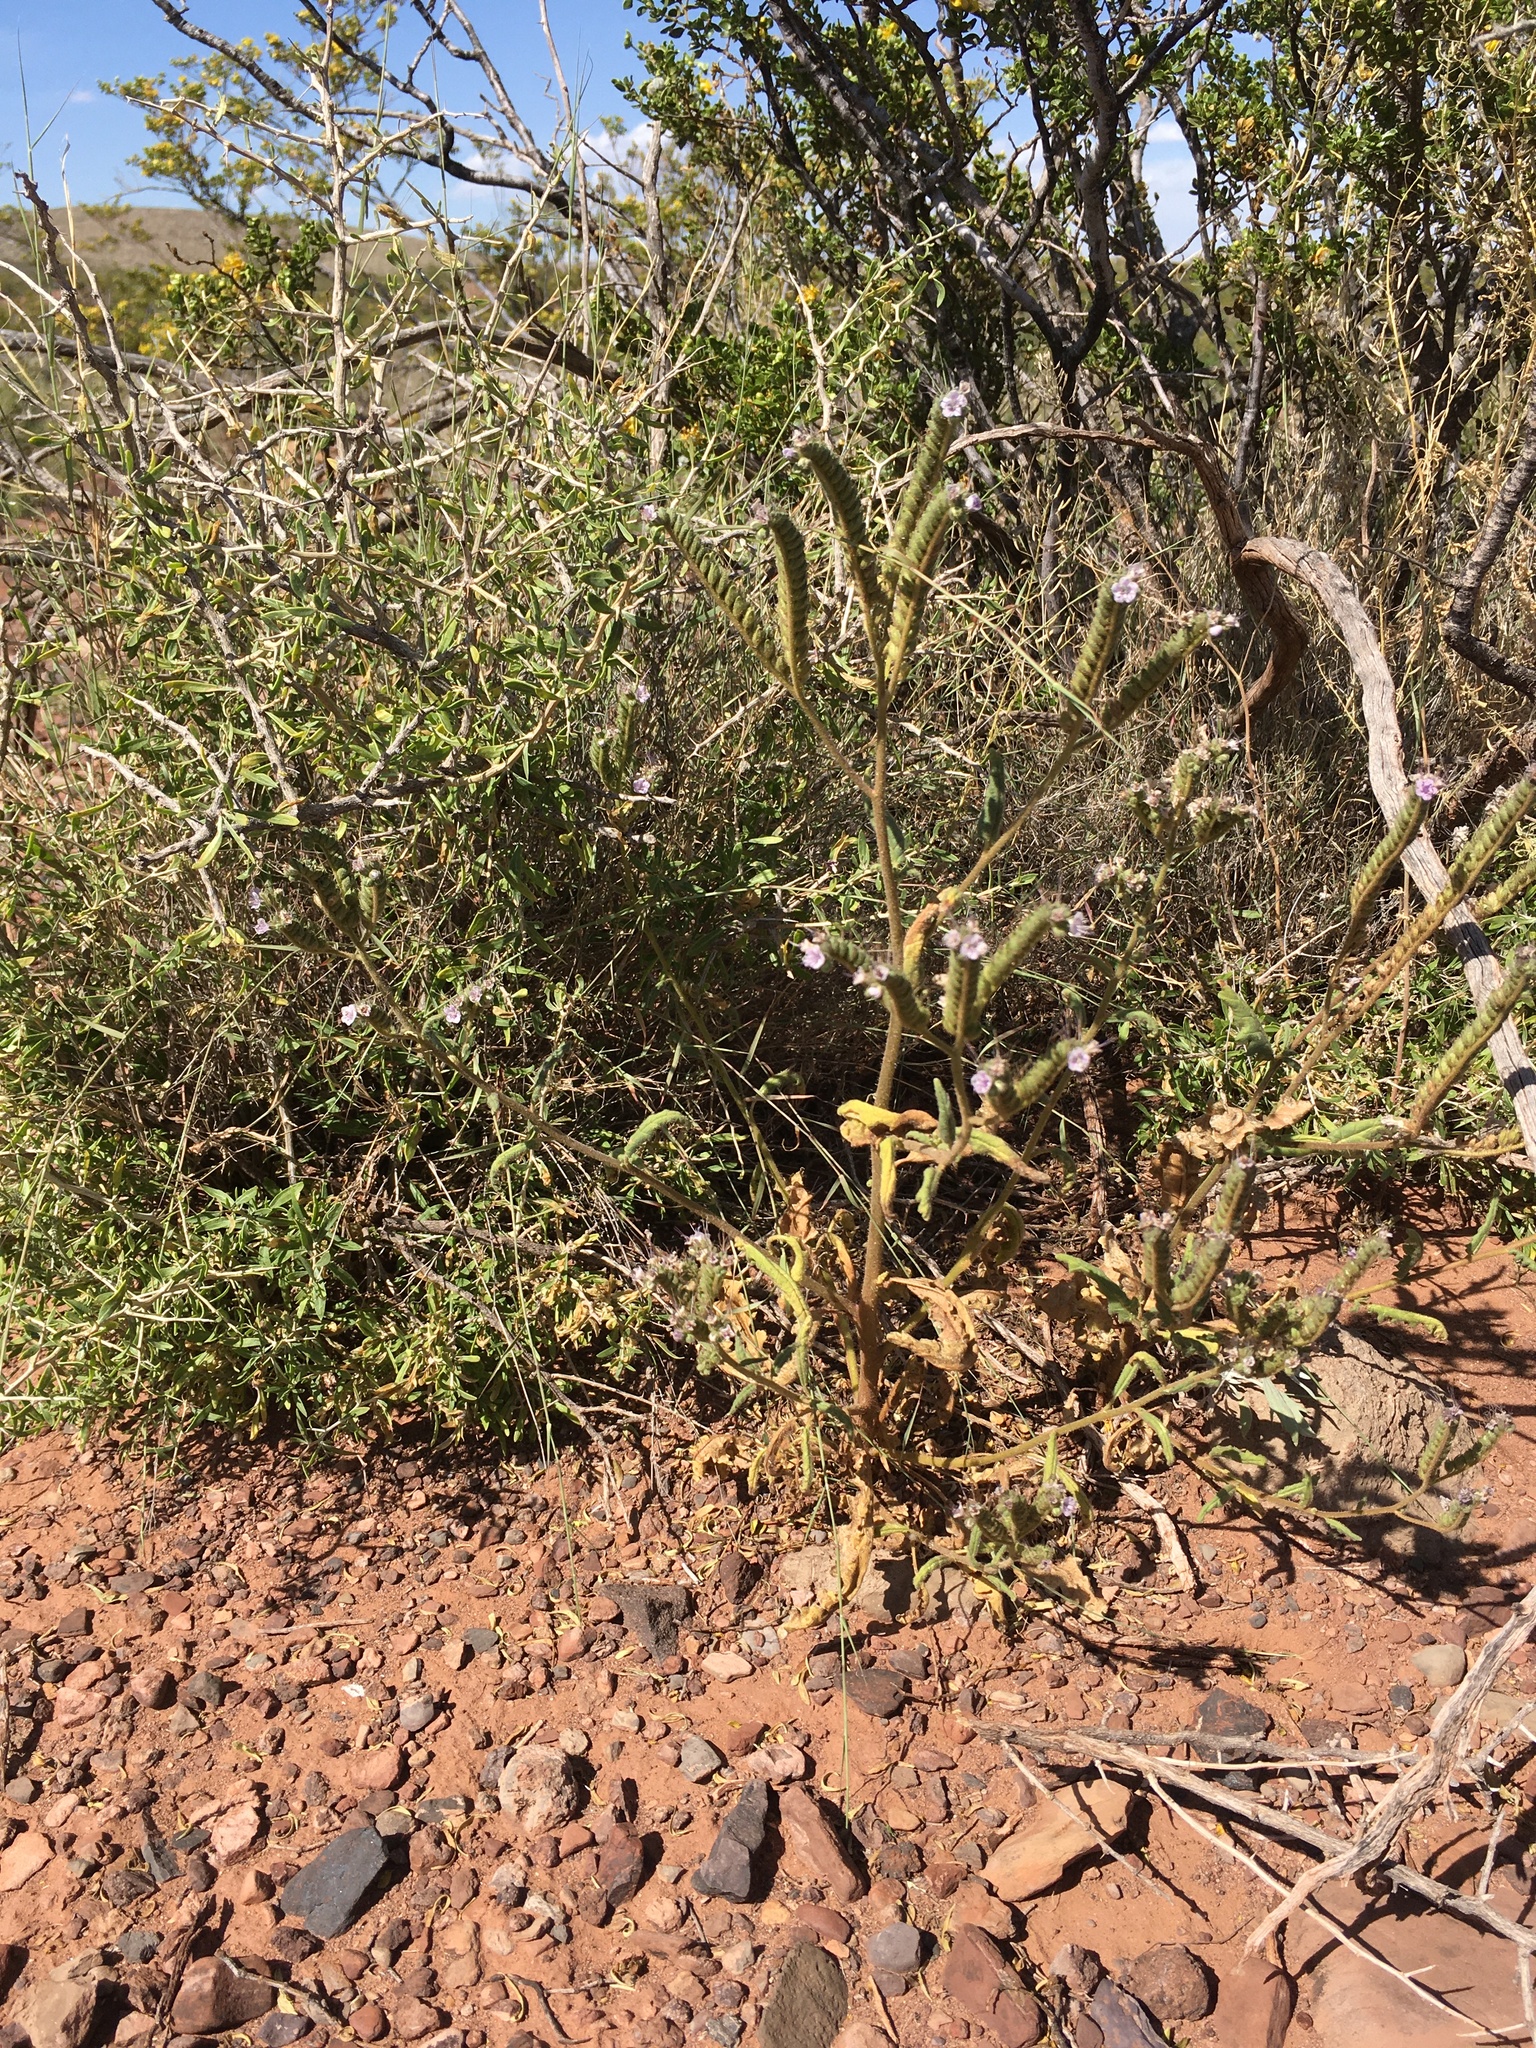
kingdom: Plantae
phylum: Tracheophyta
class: Magnoliopsida
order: Boraginales
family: Hydrophyllaceae
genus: Phacelia
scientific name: Phacelia integrifolia
